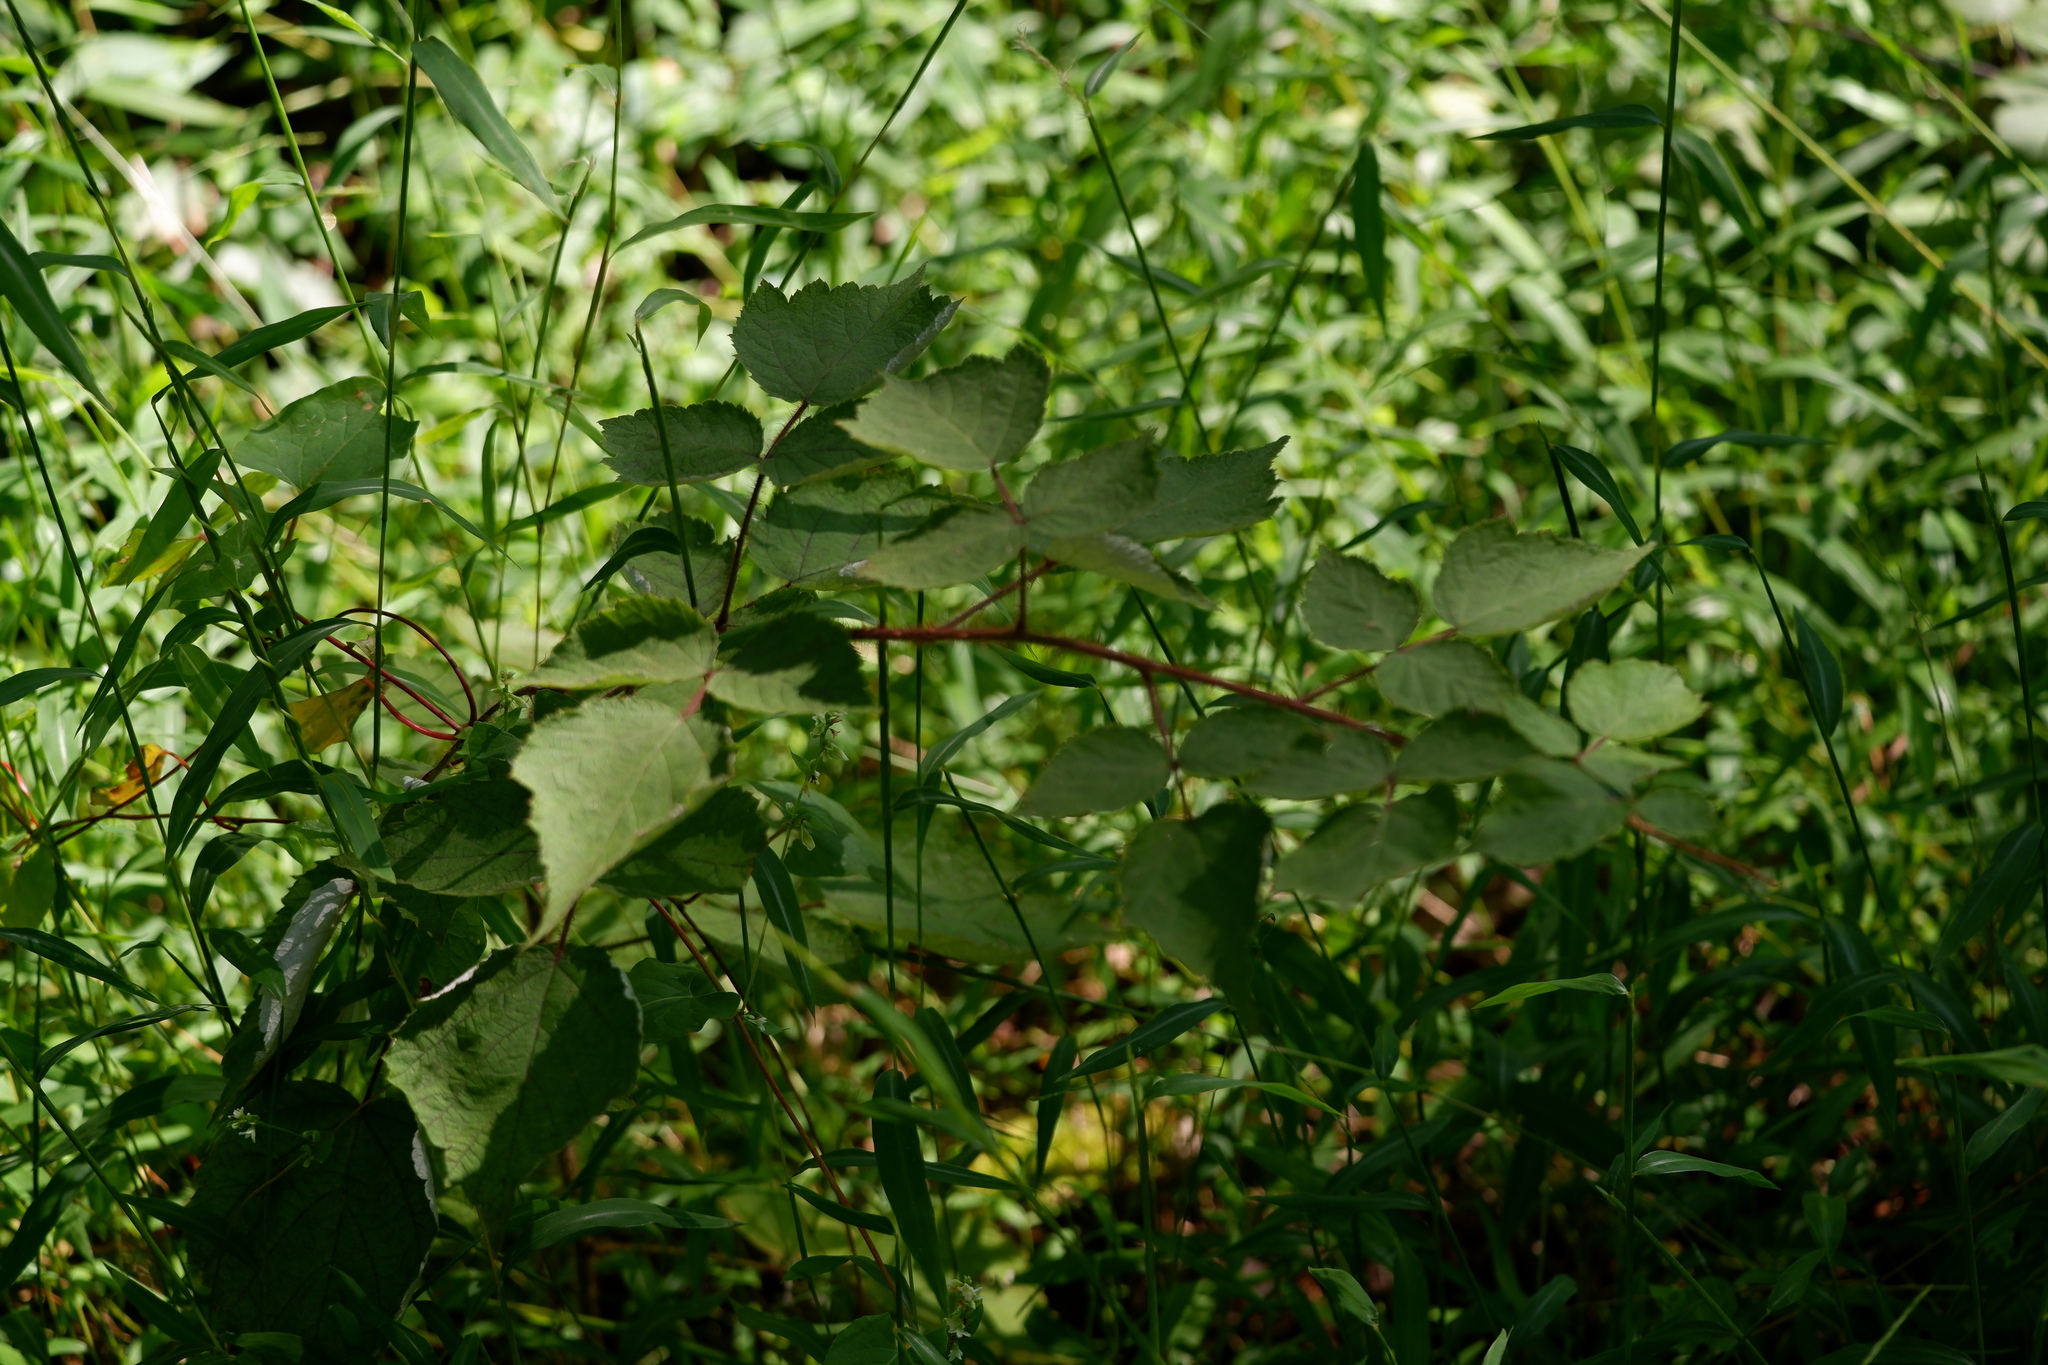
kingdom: Plantae
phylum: Tracheophyta
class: Magnoliopsida
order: Rosales
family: Rosaceae
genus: Rubus
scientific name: Rubus phoenicolasius
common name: Japanese wineberry
